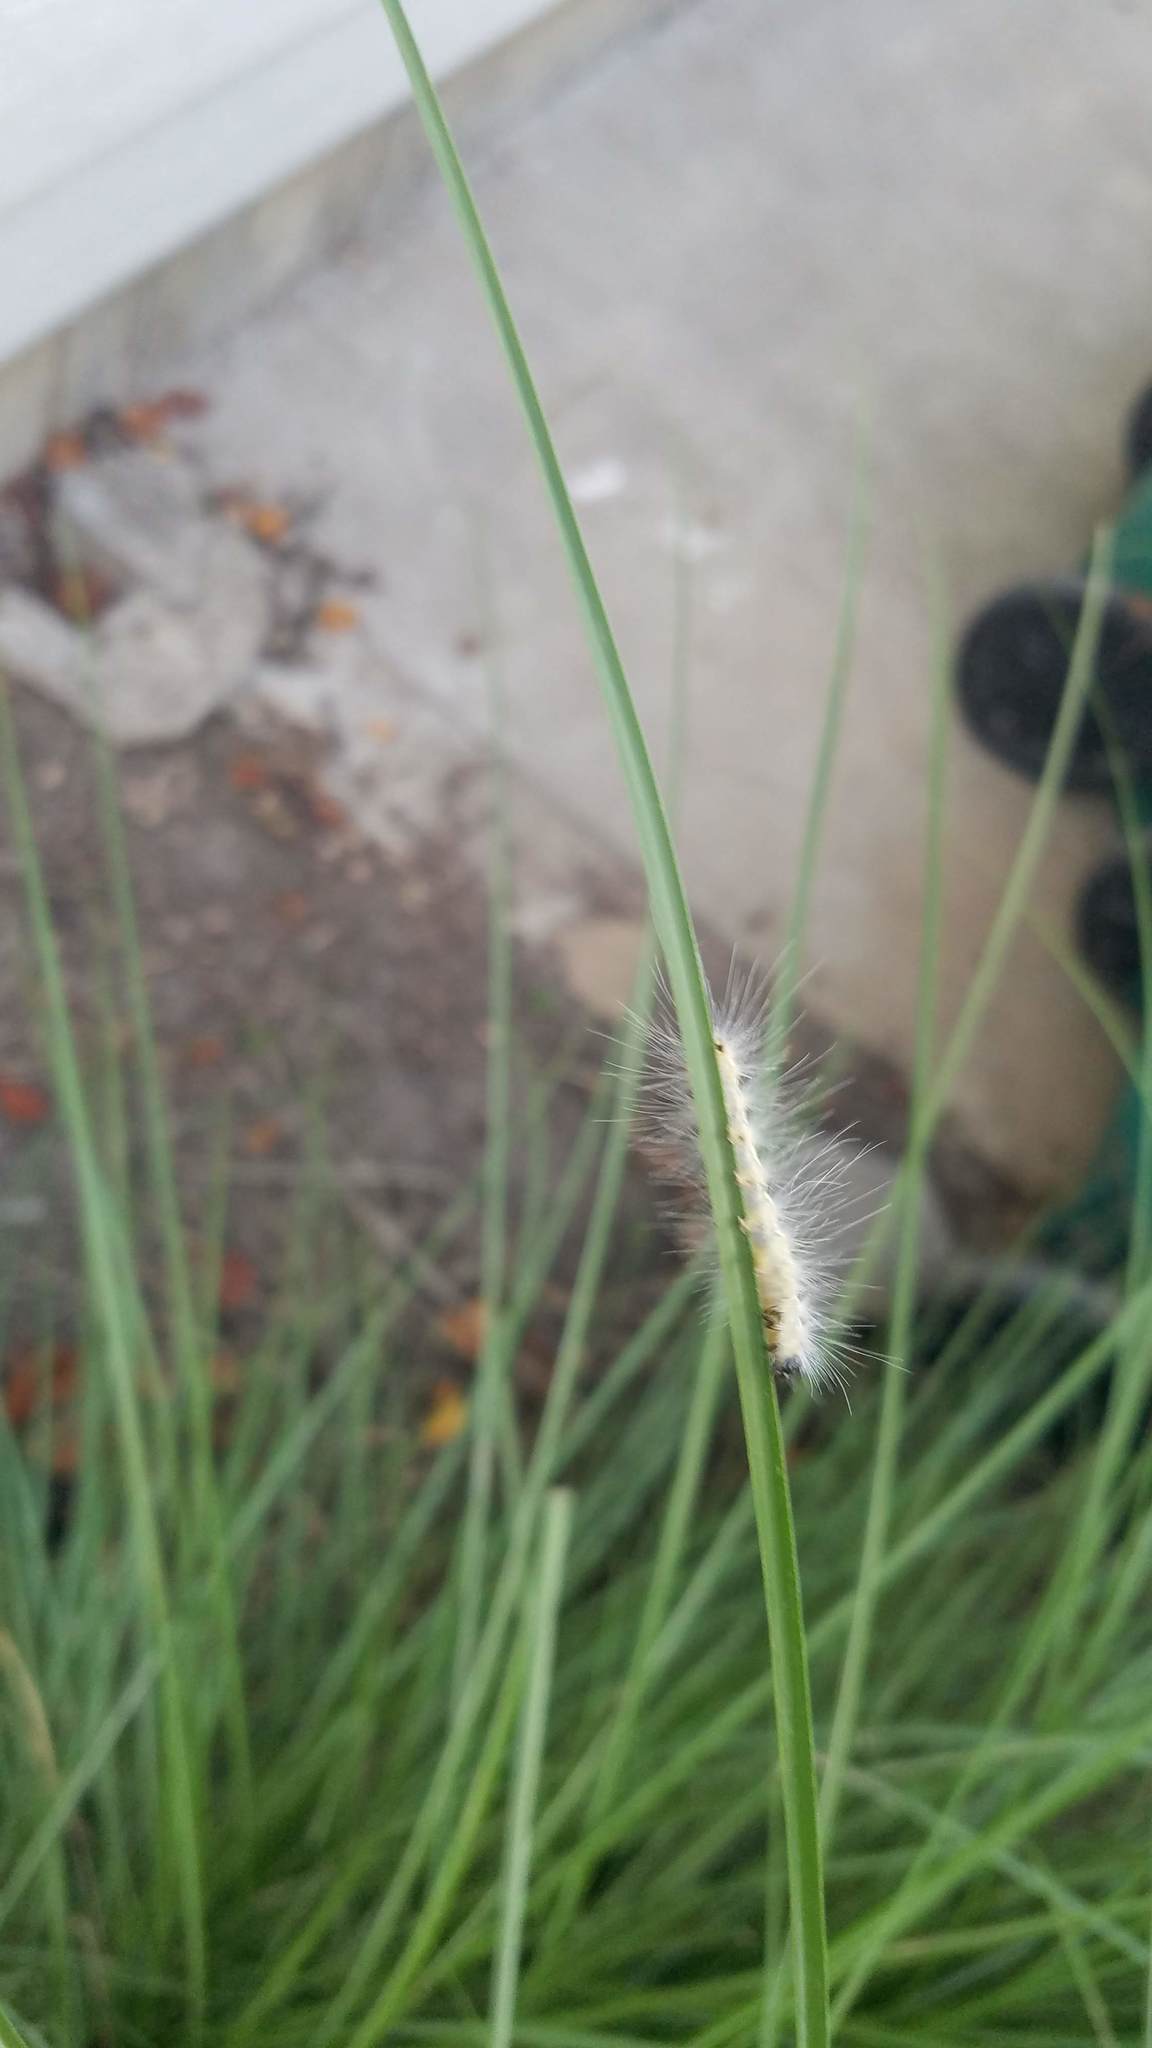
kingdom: Animalia
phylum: Arthropoda
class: Insecta
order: Lepidoptera
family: Erebidae
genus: Hyphantria
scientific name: Hyphantria cunea
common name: American white moth
